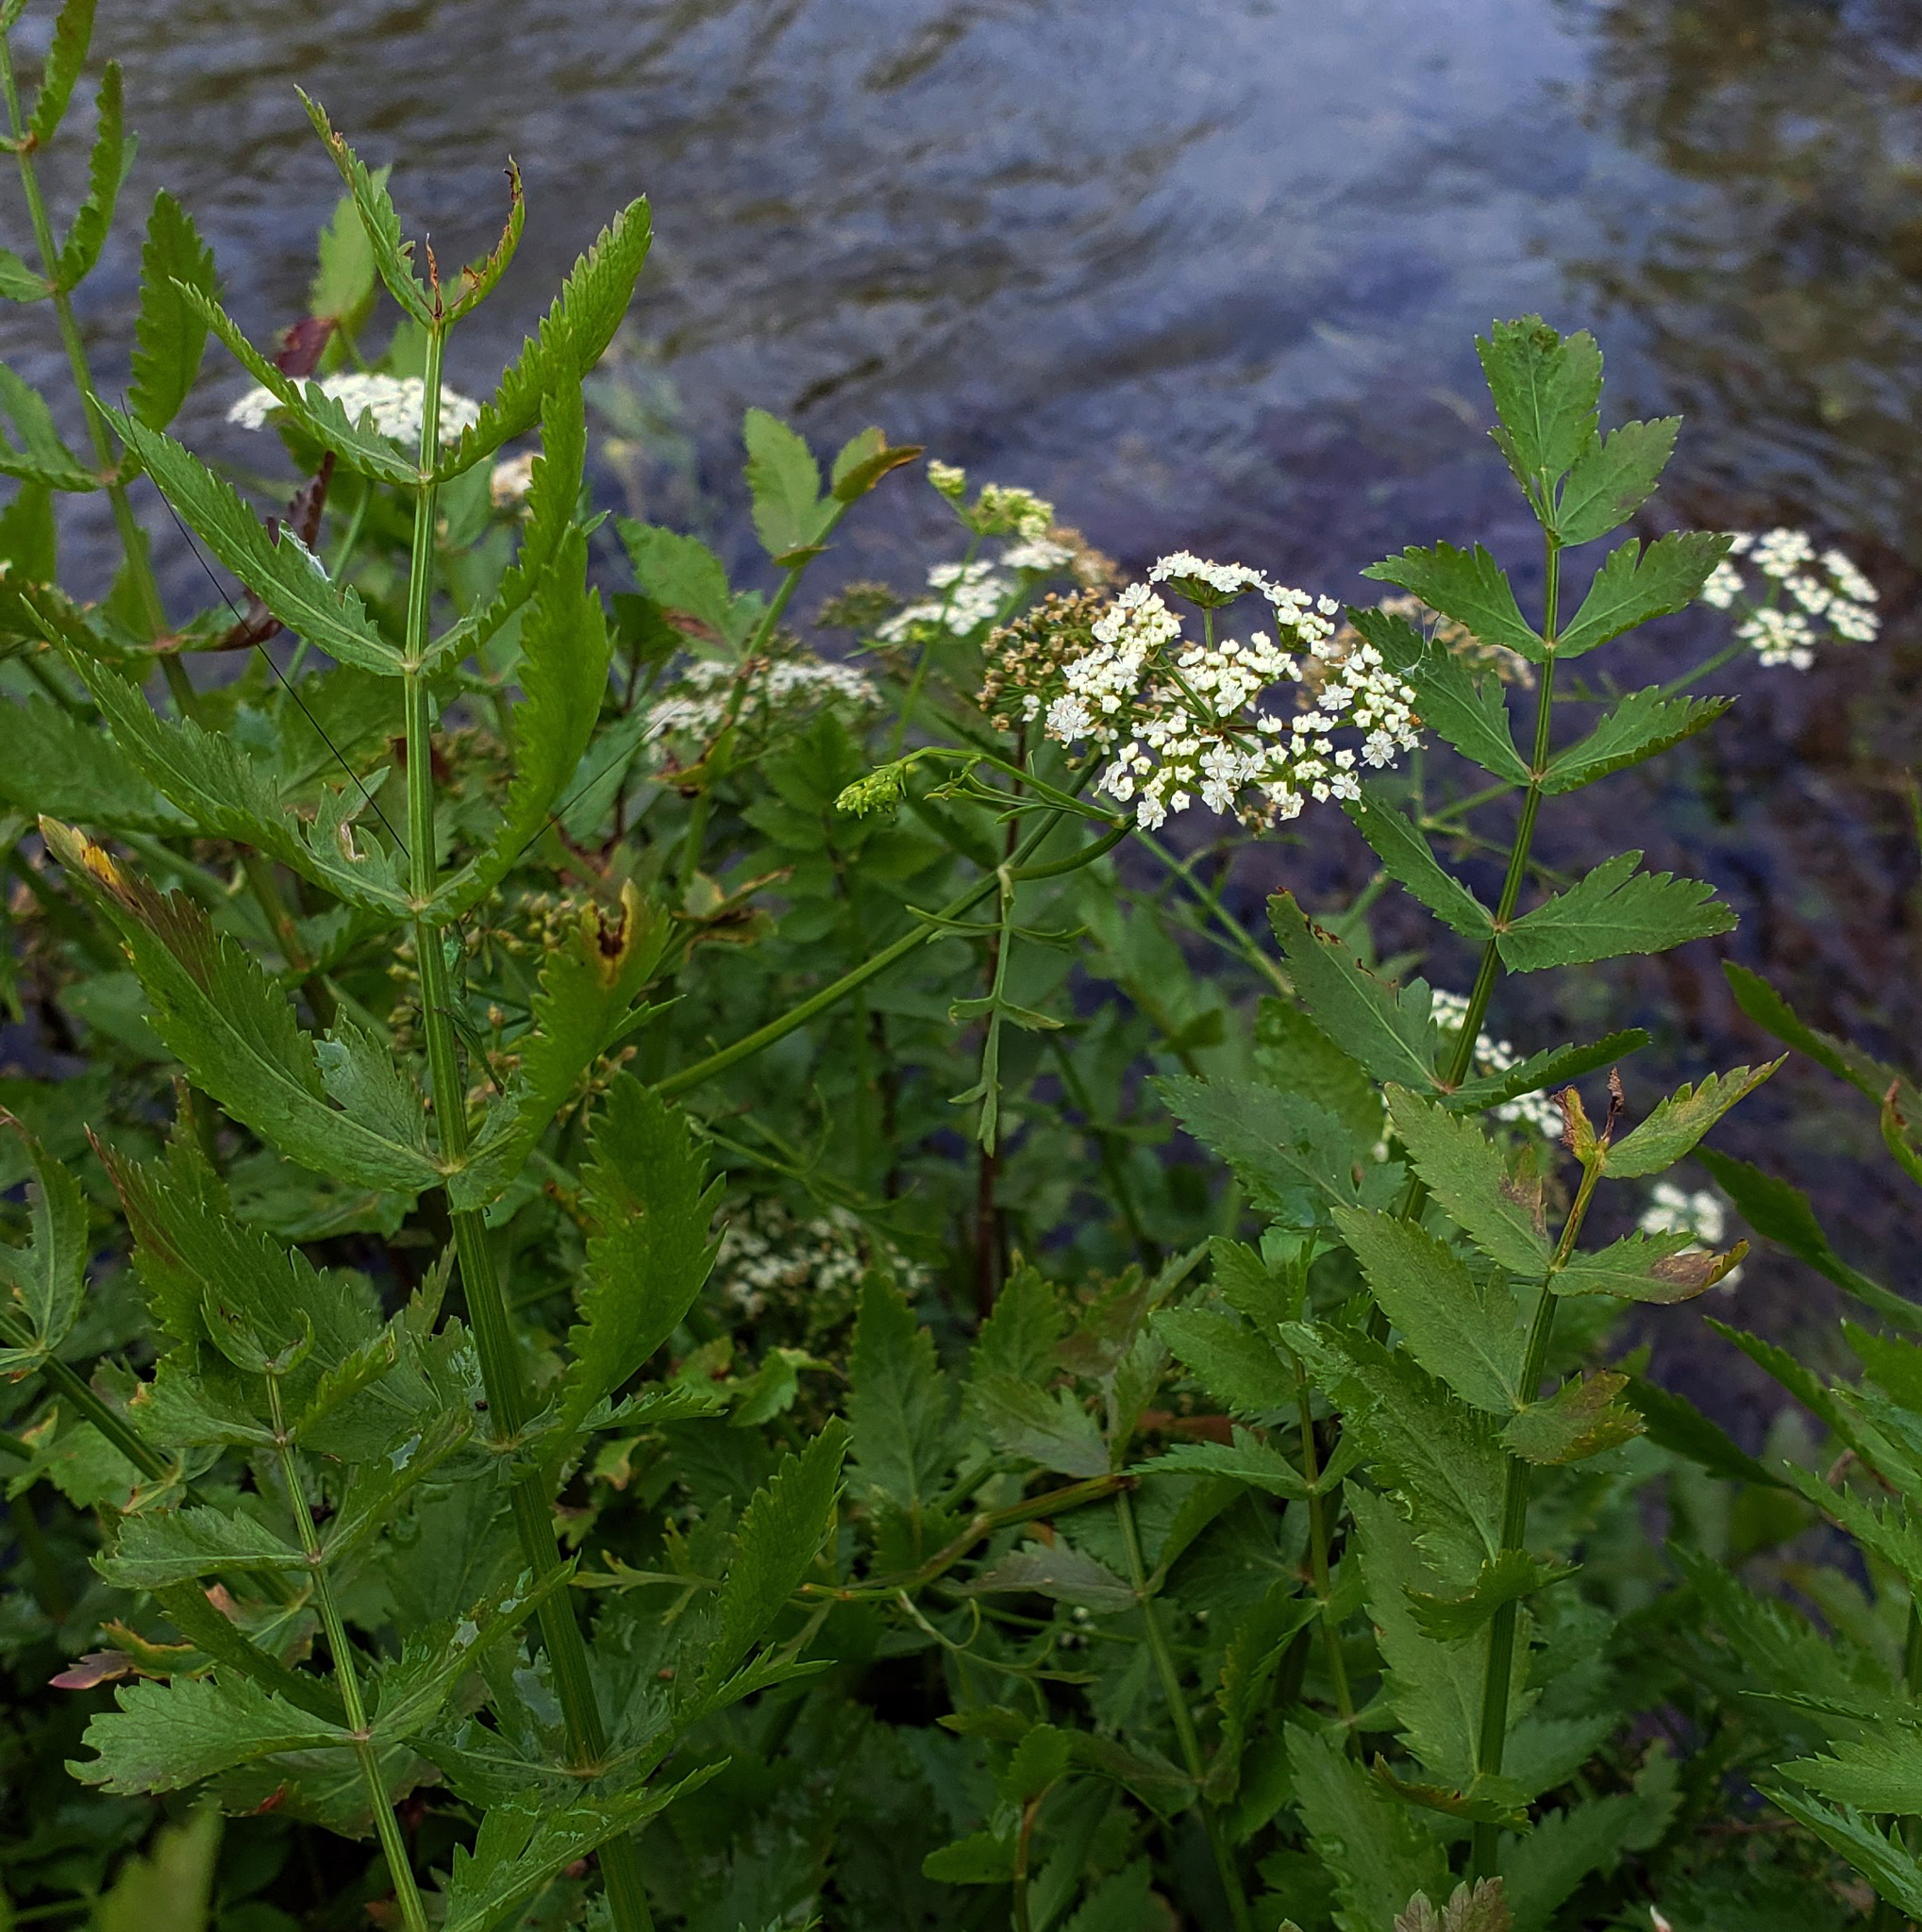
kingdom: Plantae
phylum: Tracheophyta
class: Magnoliopsida
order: Apiales
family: Apiaceae
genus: Berula
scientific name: Berula erecta
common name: Lesser water-parsnip
